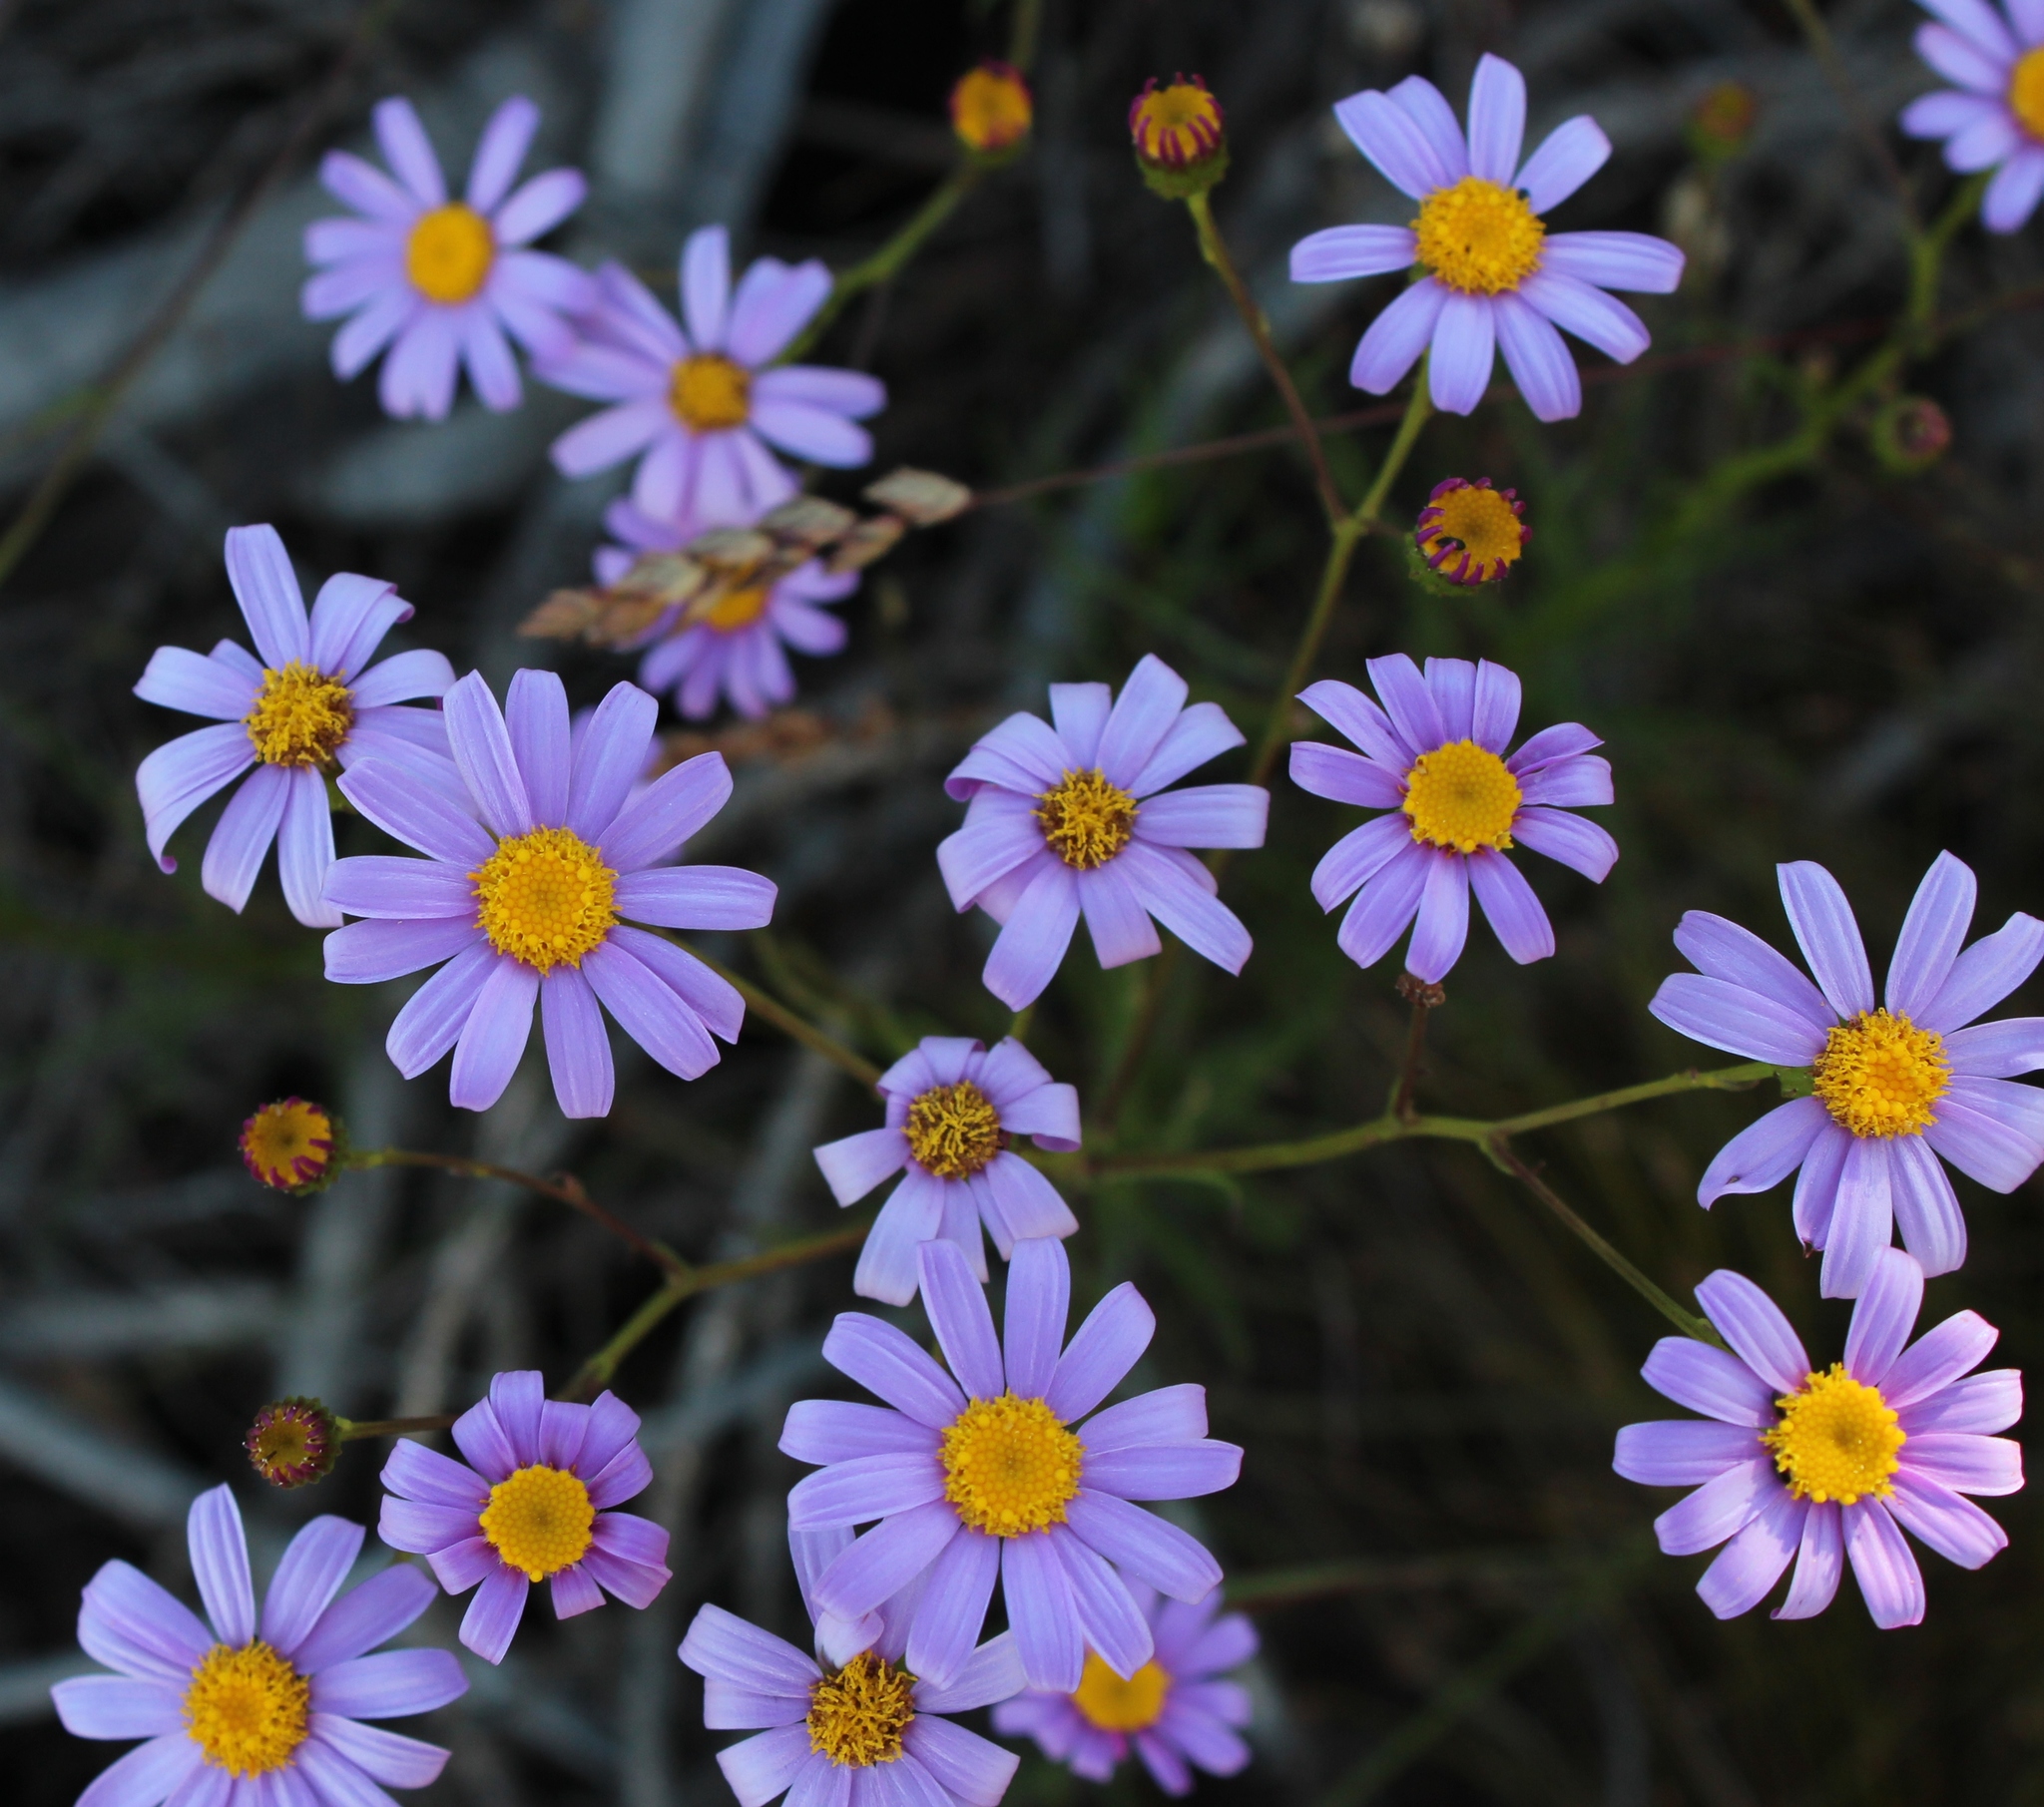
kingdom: Plantae
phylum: Tracheophyta
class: Magnoliopsida
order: Asterales
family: Asteraceae
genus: Senecio
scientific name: Senecio umbellatus
